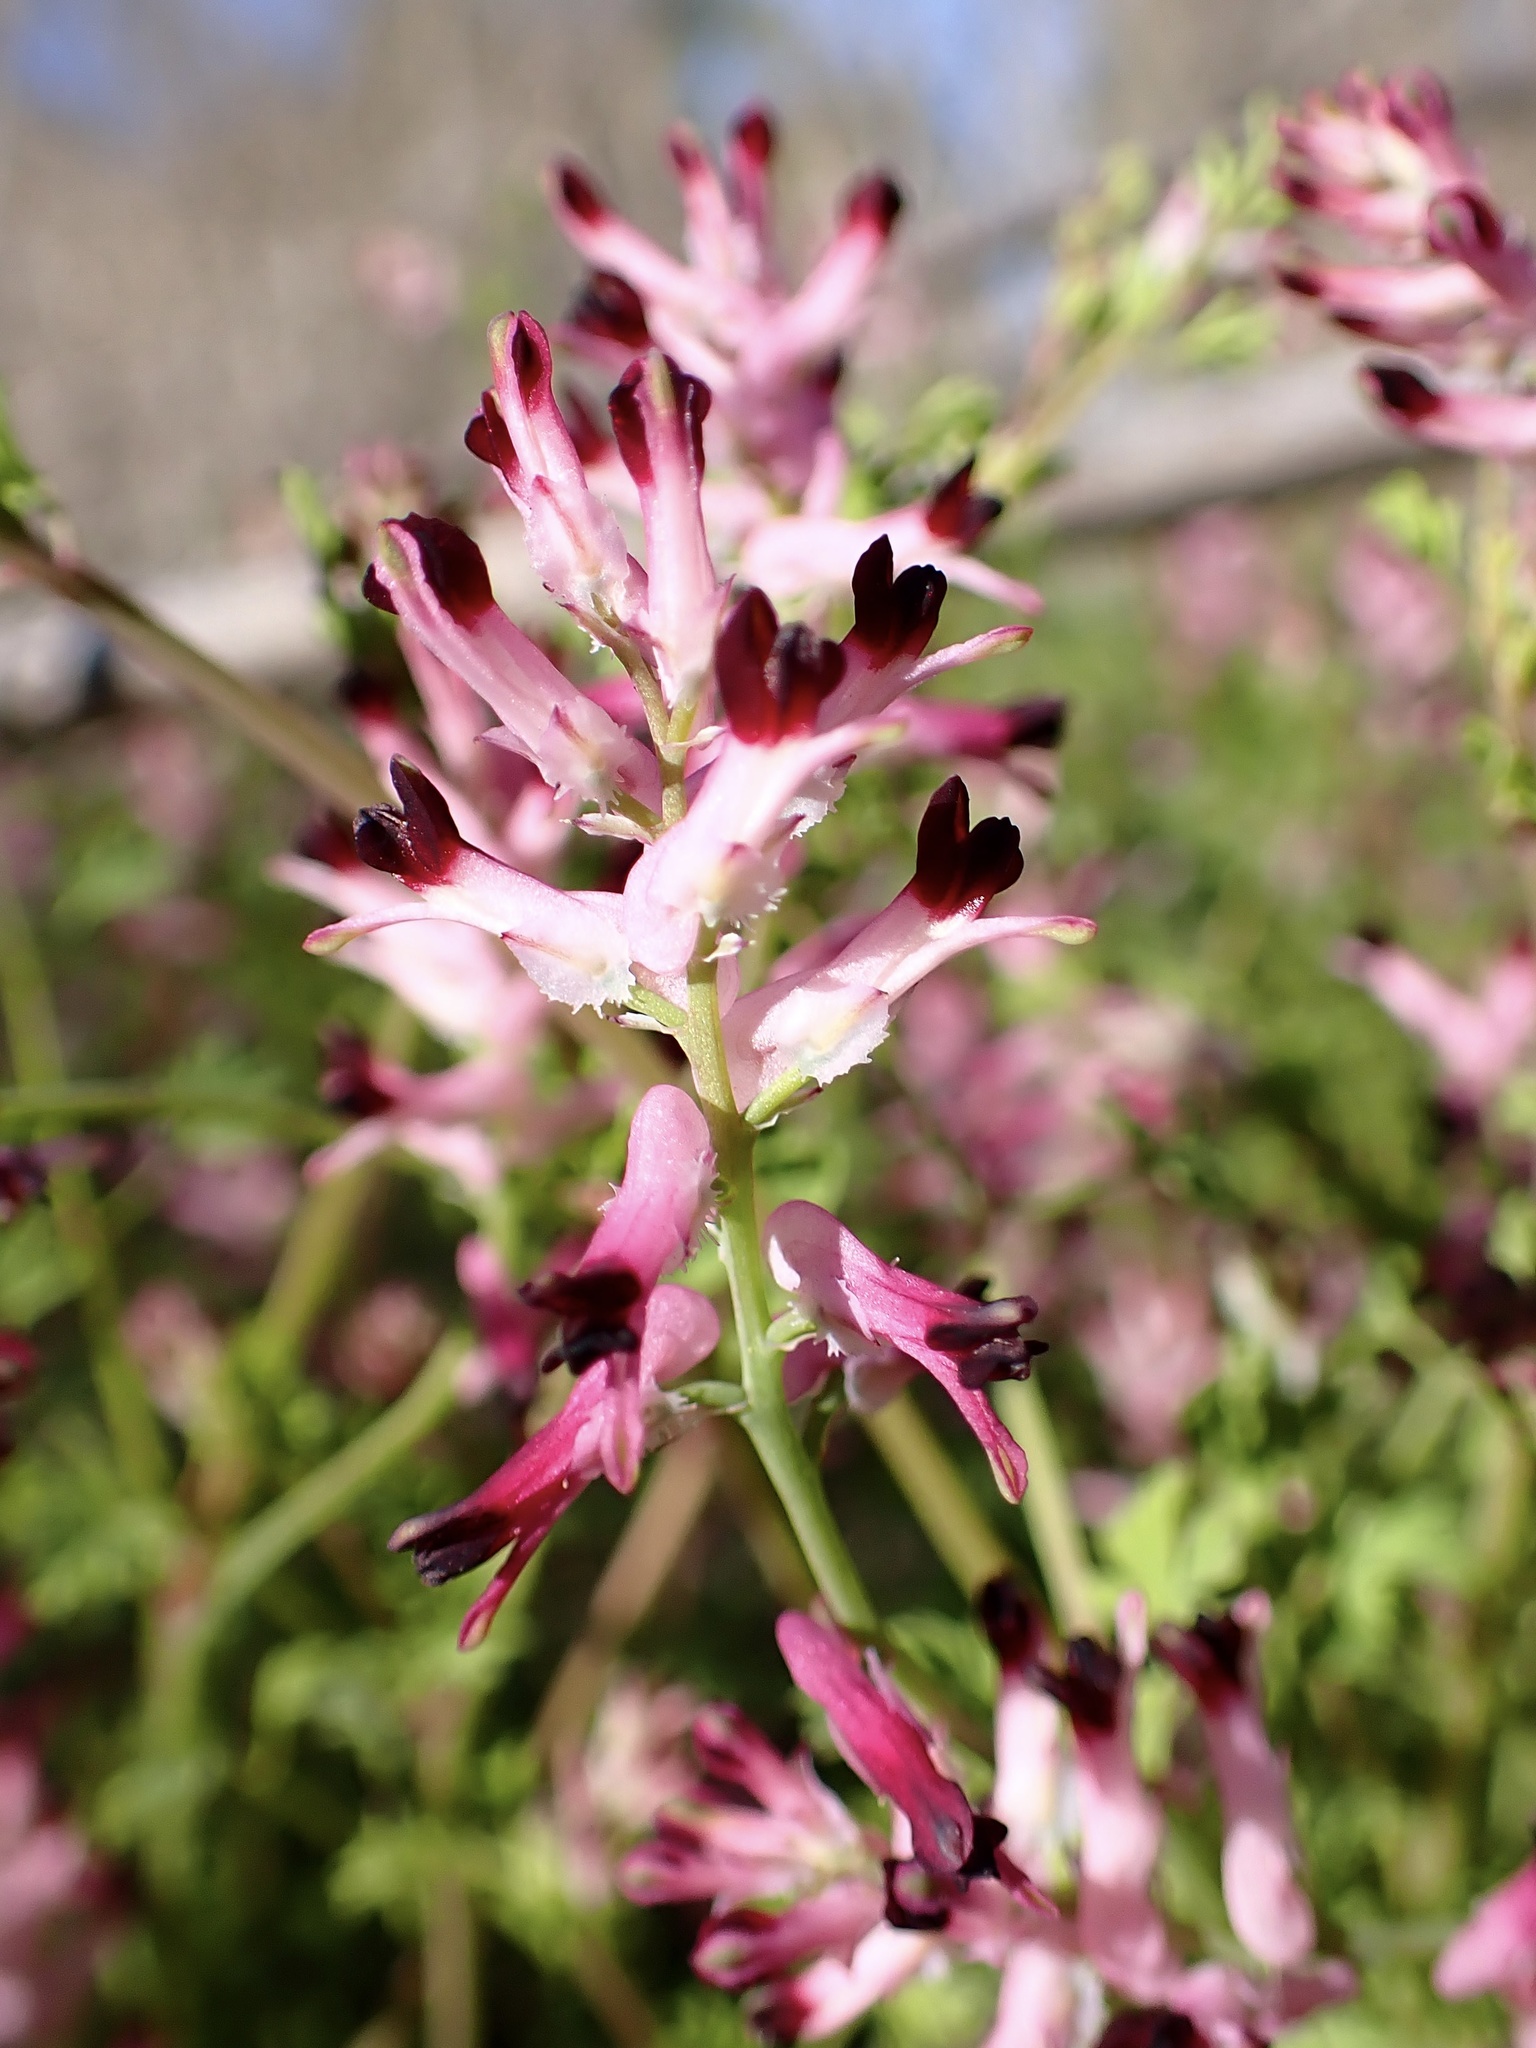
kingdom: Plantae
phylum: Tracheophyta
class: Magnoliopsida
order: Ranunculales
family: Papaveraceae
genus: Fumaria
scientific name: Fumaria muralis
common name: Common ramping-fumitory
